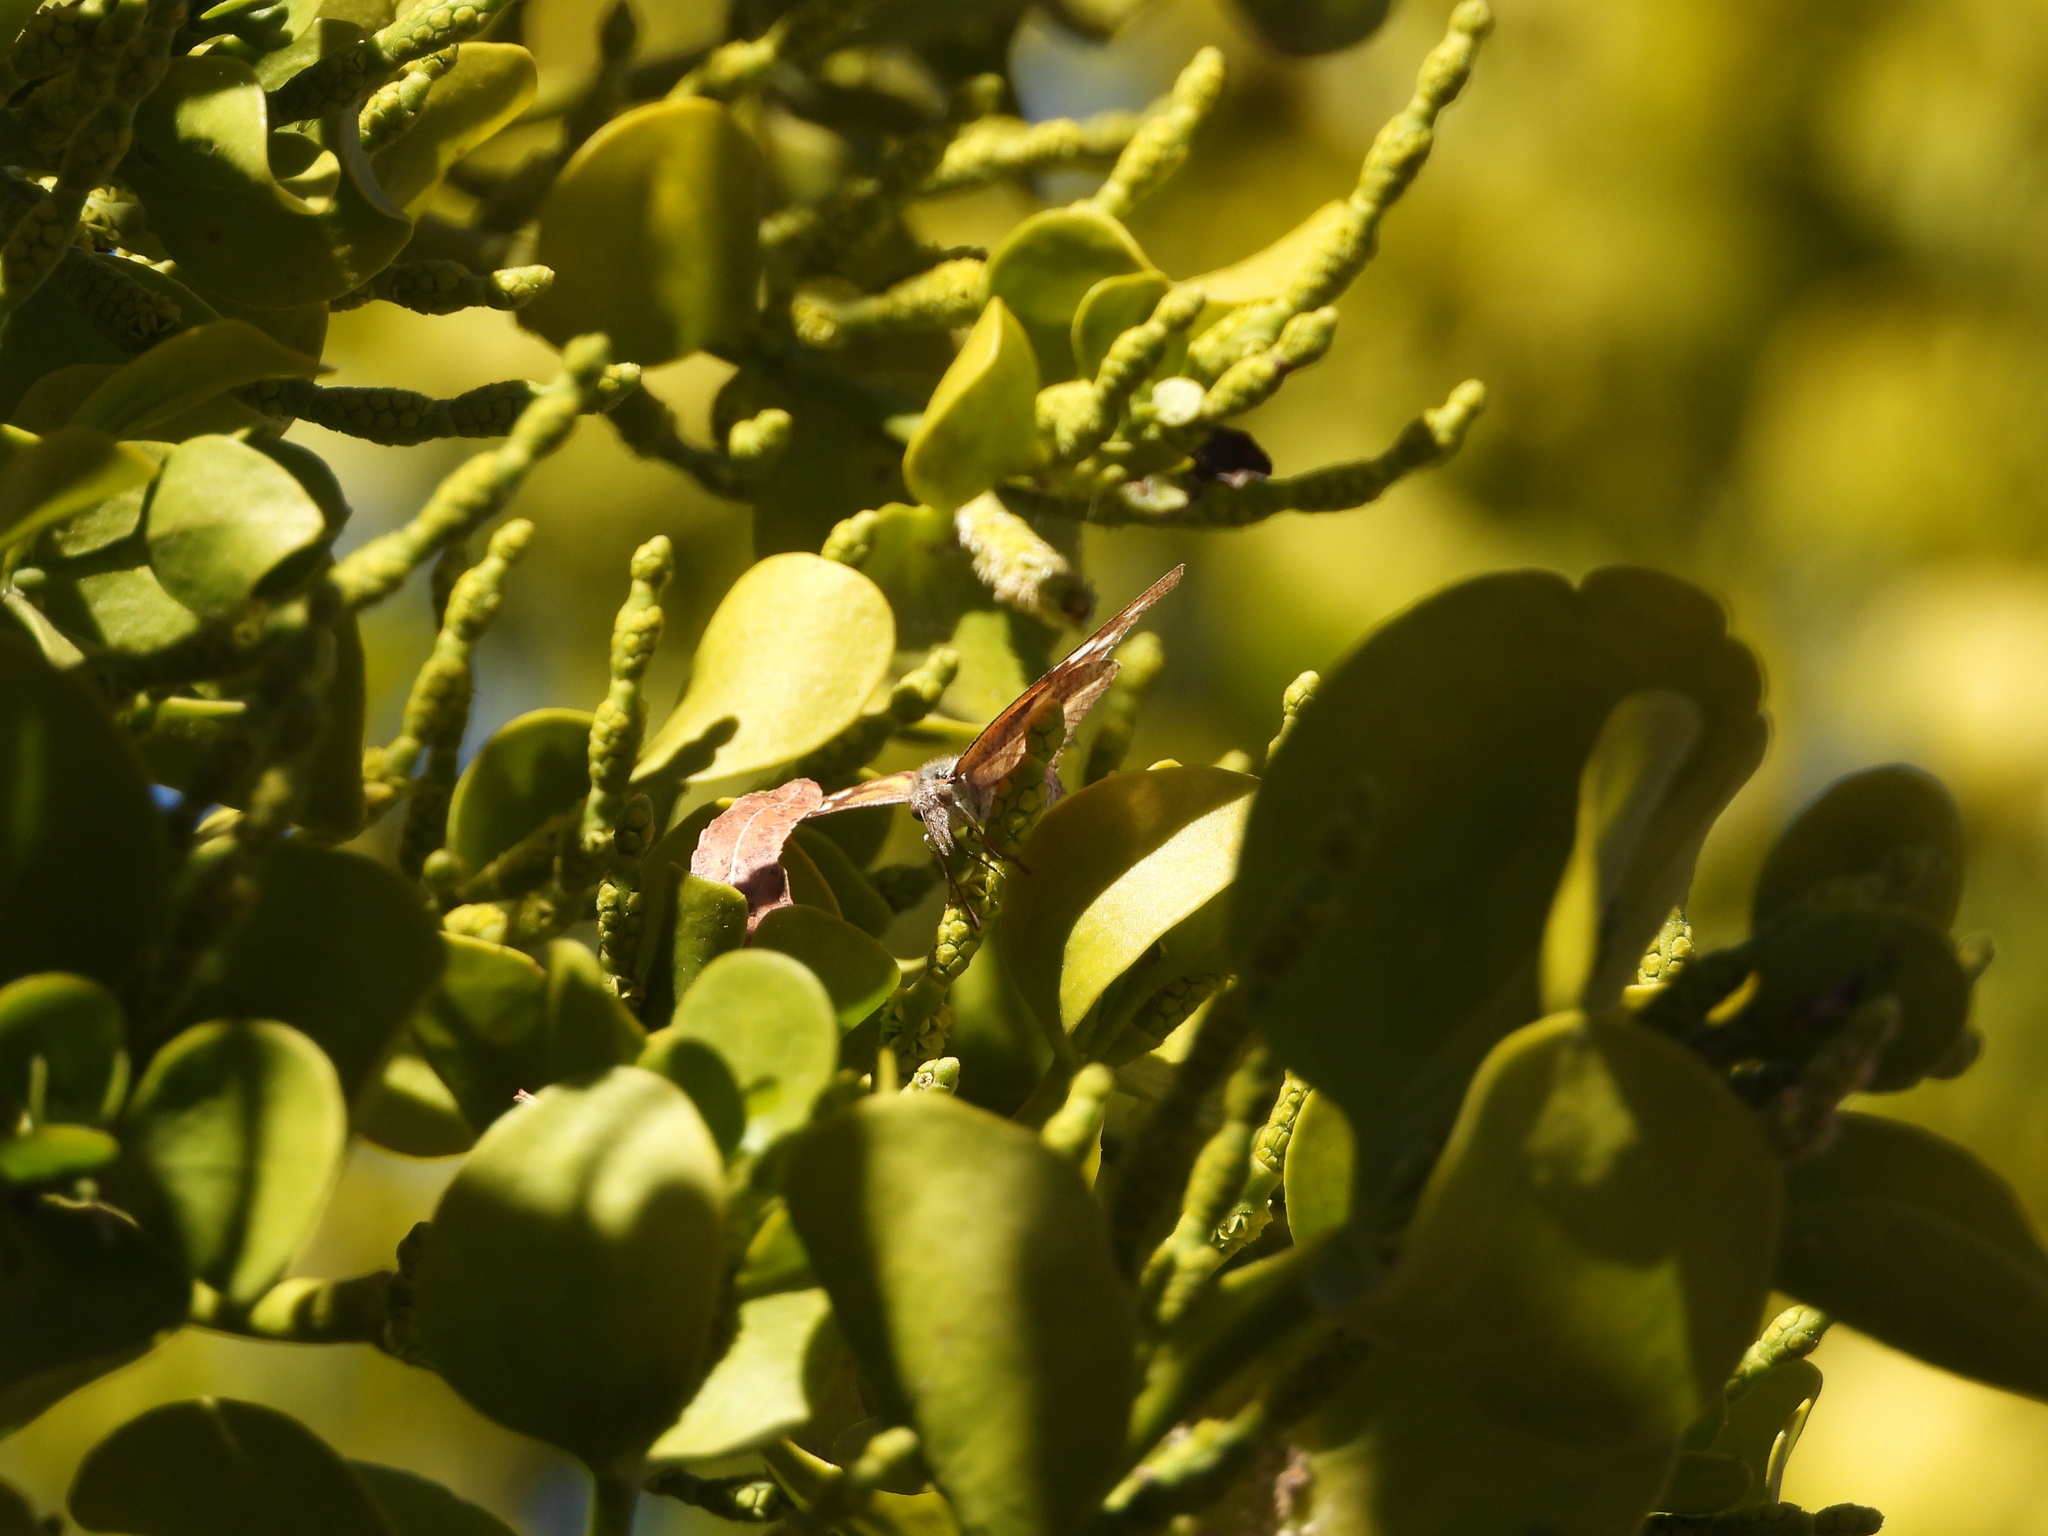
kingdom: Animalia
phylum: Arthropoda
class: Insecta
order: Lepidoptera
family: Nymphalidae
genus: Libytheana
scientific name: Libytheana carinenta
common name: American snout
